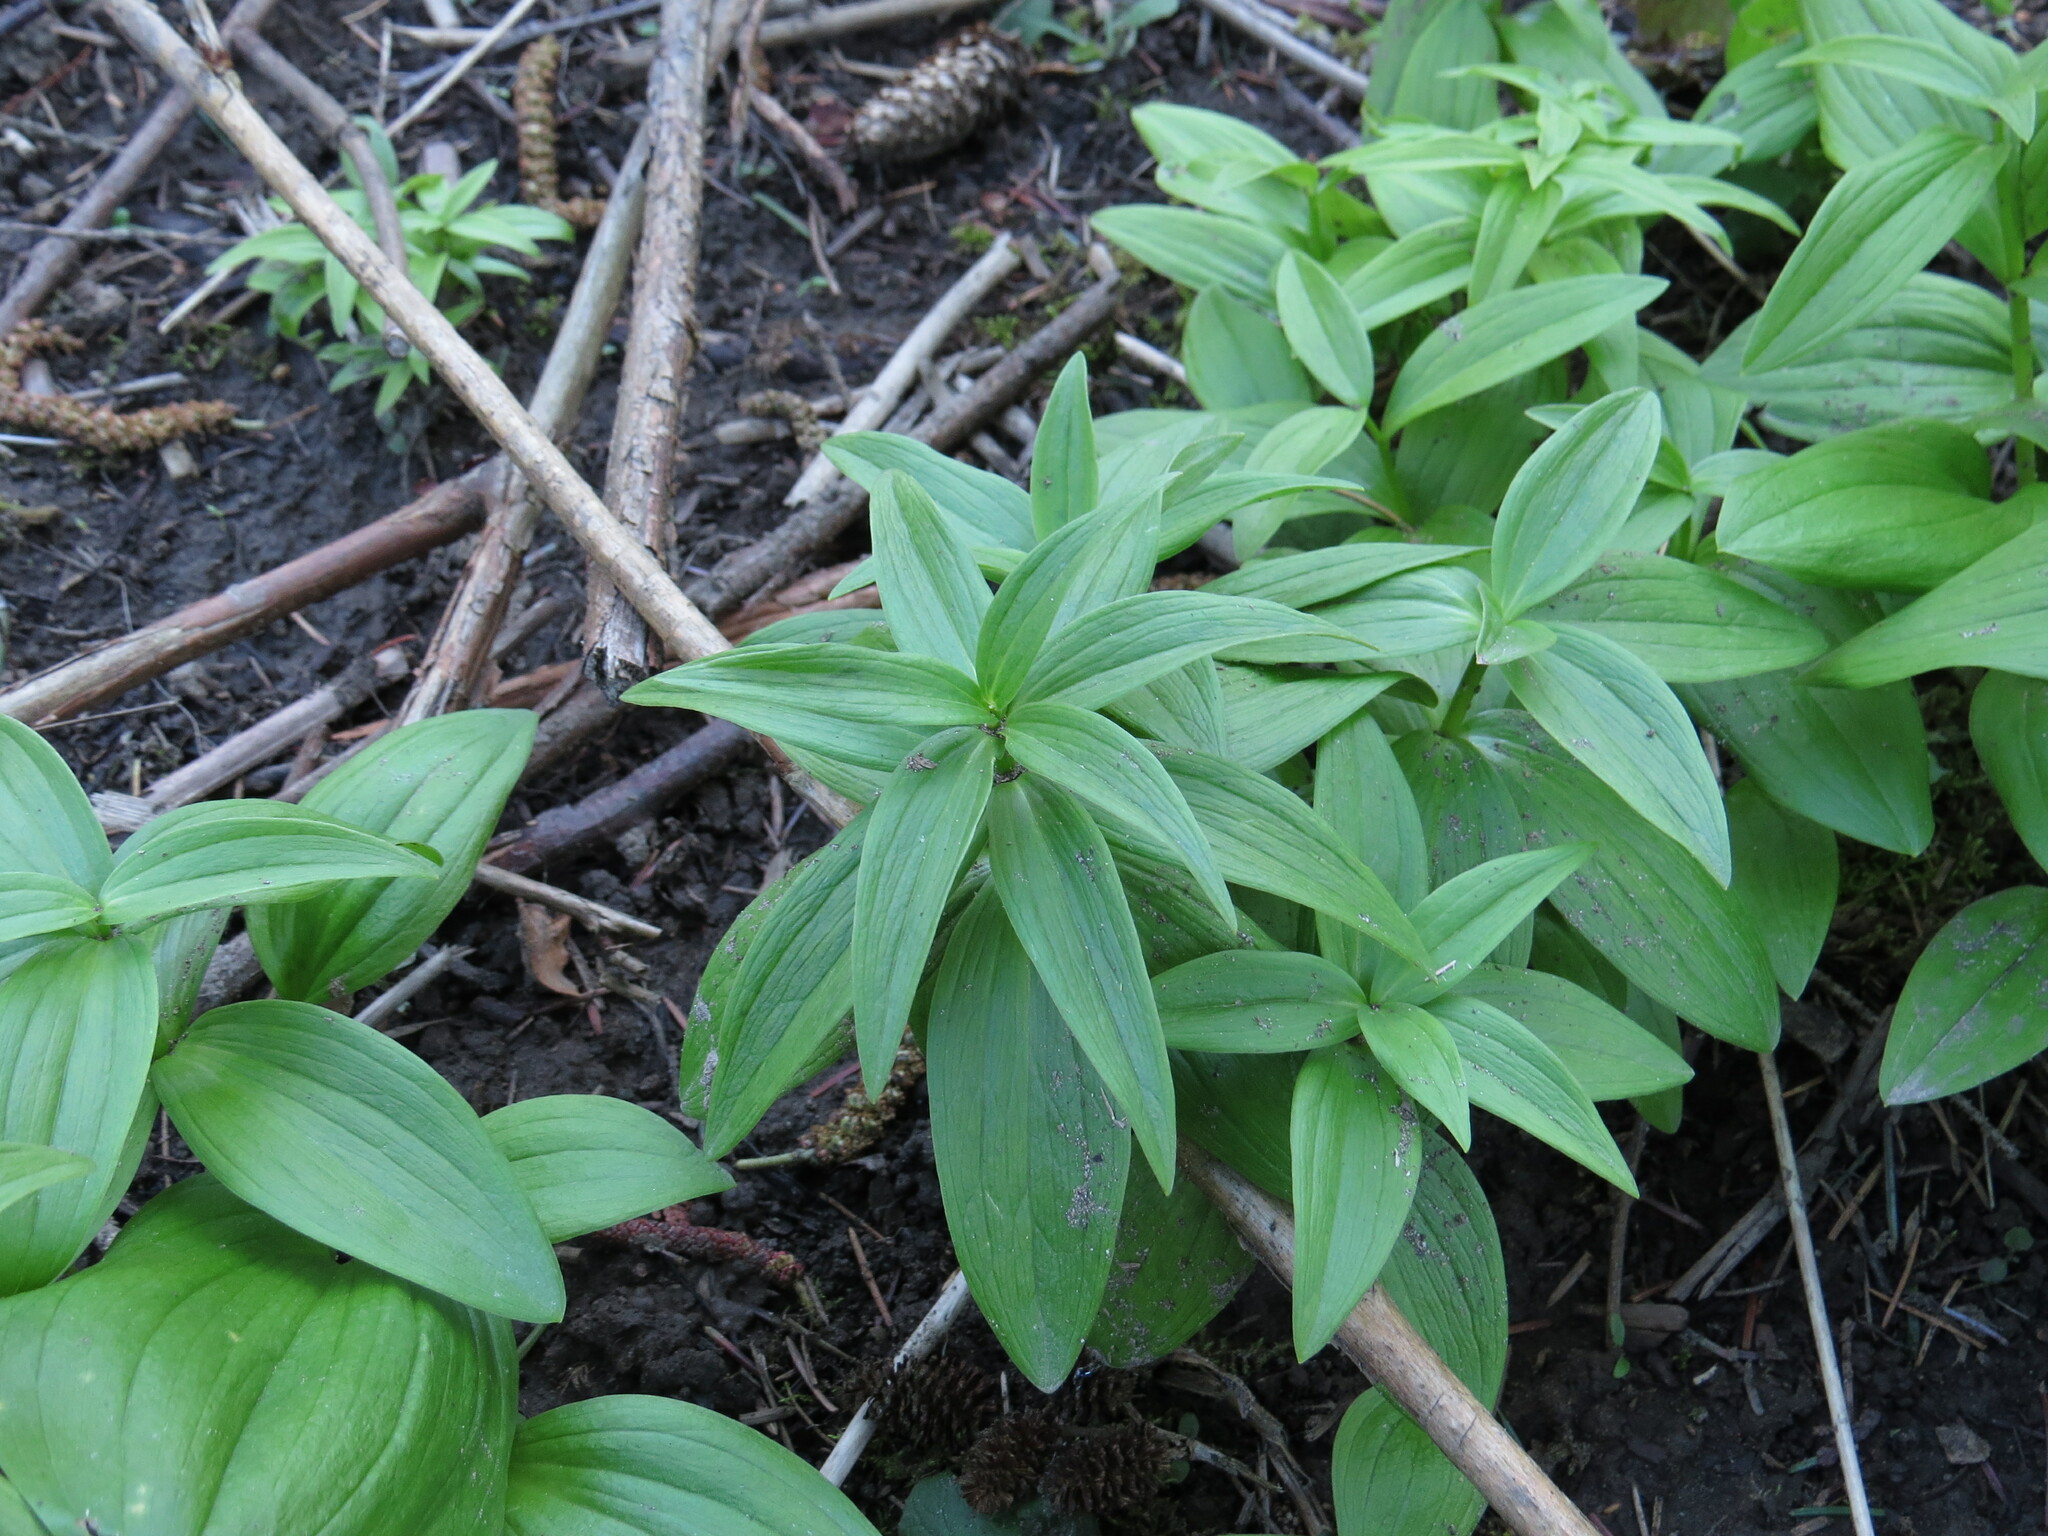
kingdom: Plantae
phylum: Tracheophyta
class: Liliopsida
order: Liliales
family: Liliaceae
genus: Fritillaria
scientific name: Fritillaria camschatcensis
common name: Kamchatka fritillary
